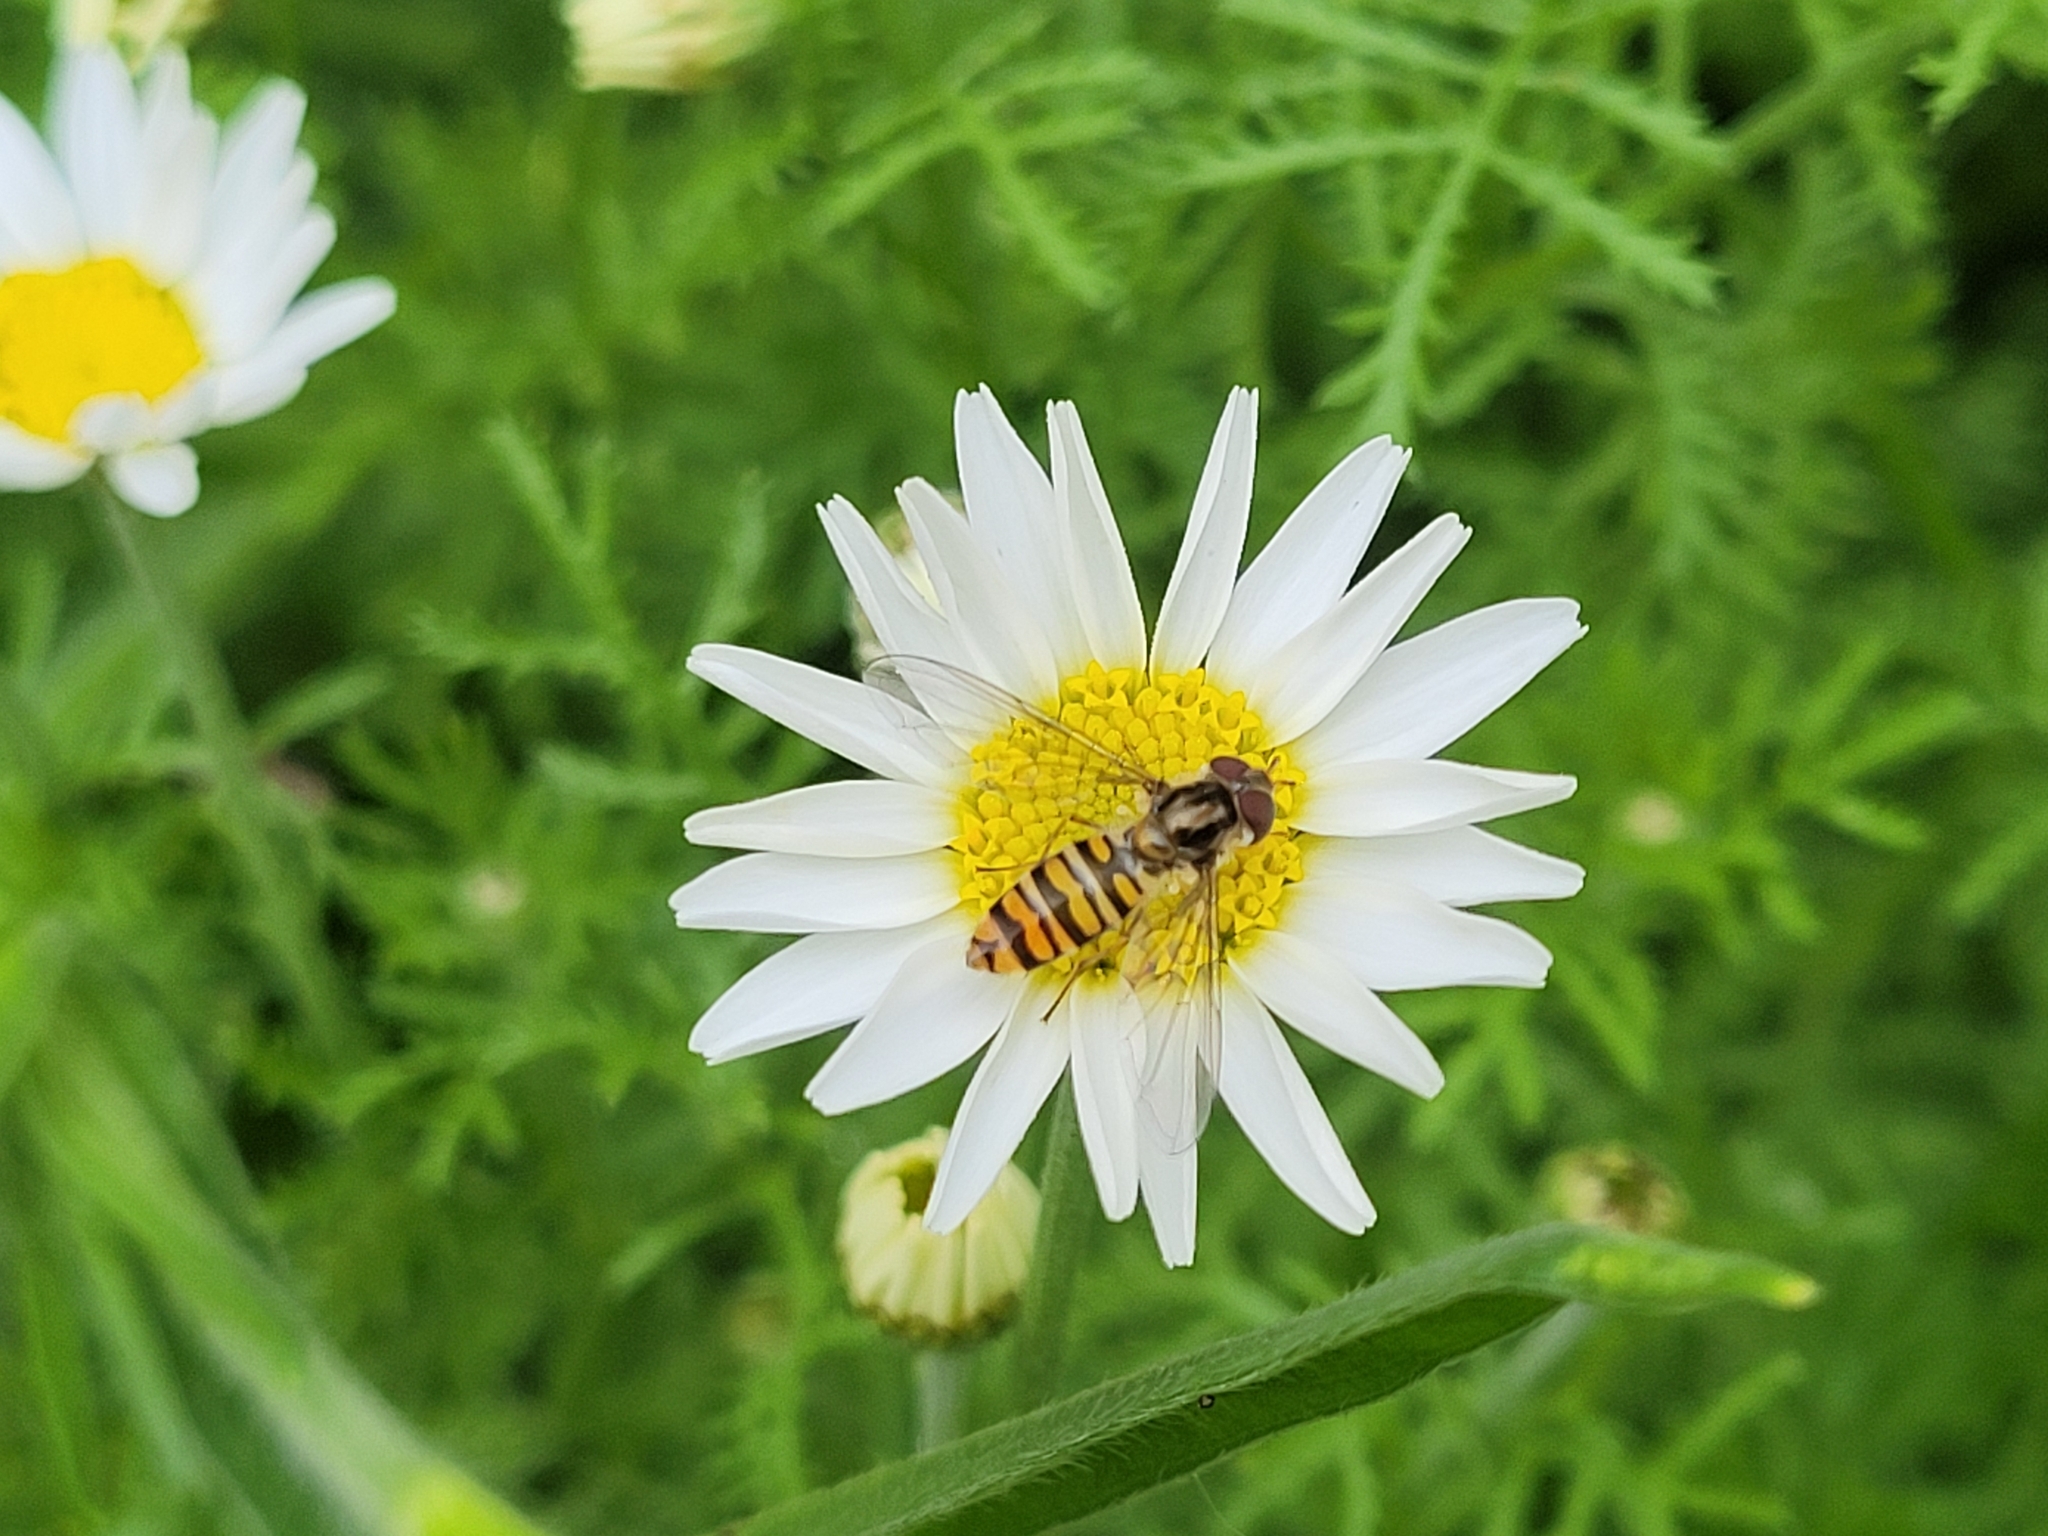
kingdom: Animalia
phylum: Arthropoda
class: Insecta
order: Diptera
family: Syrphidae
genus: Episyrphus
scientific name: Episyrphus balteatus
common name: Marmalade hoverfly
